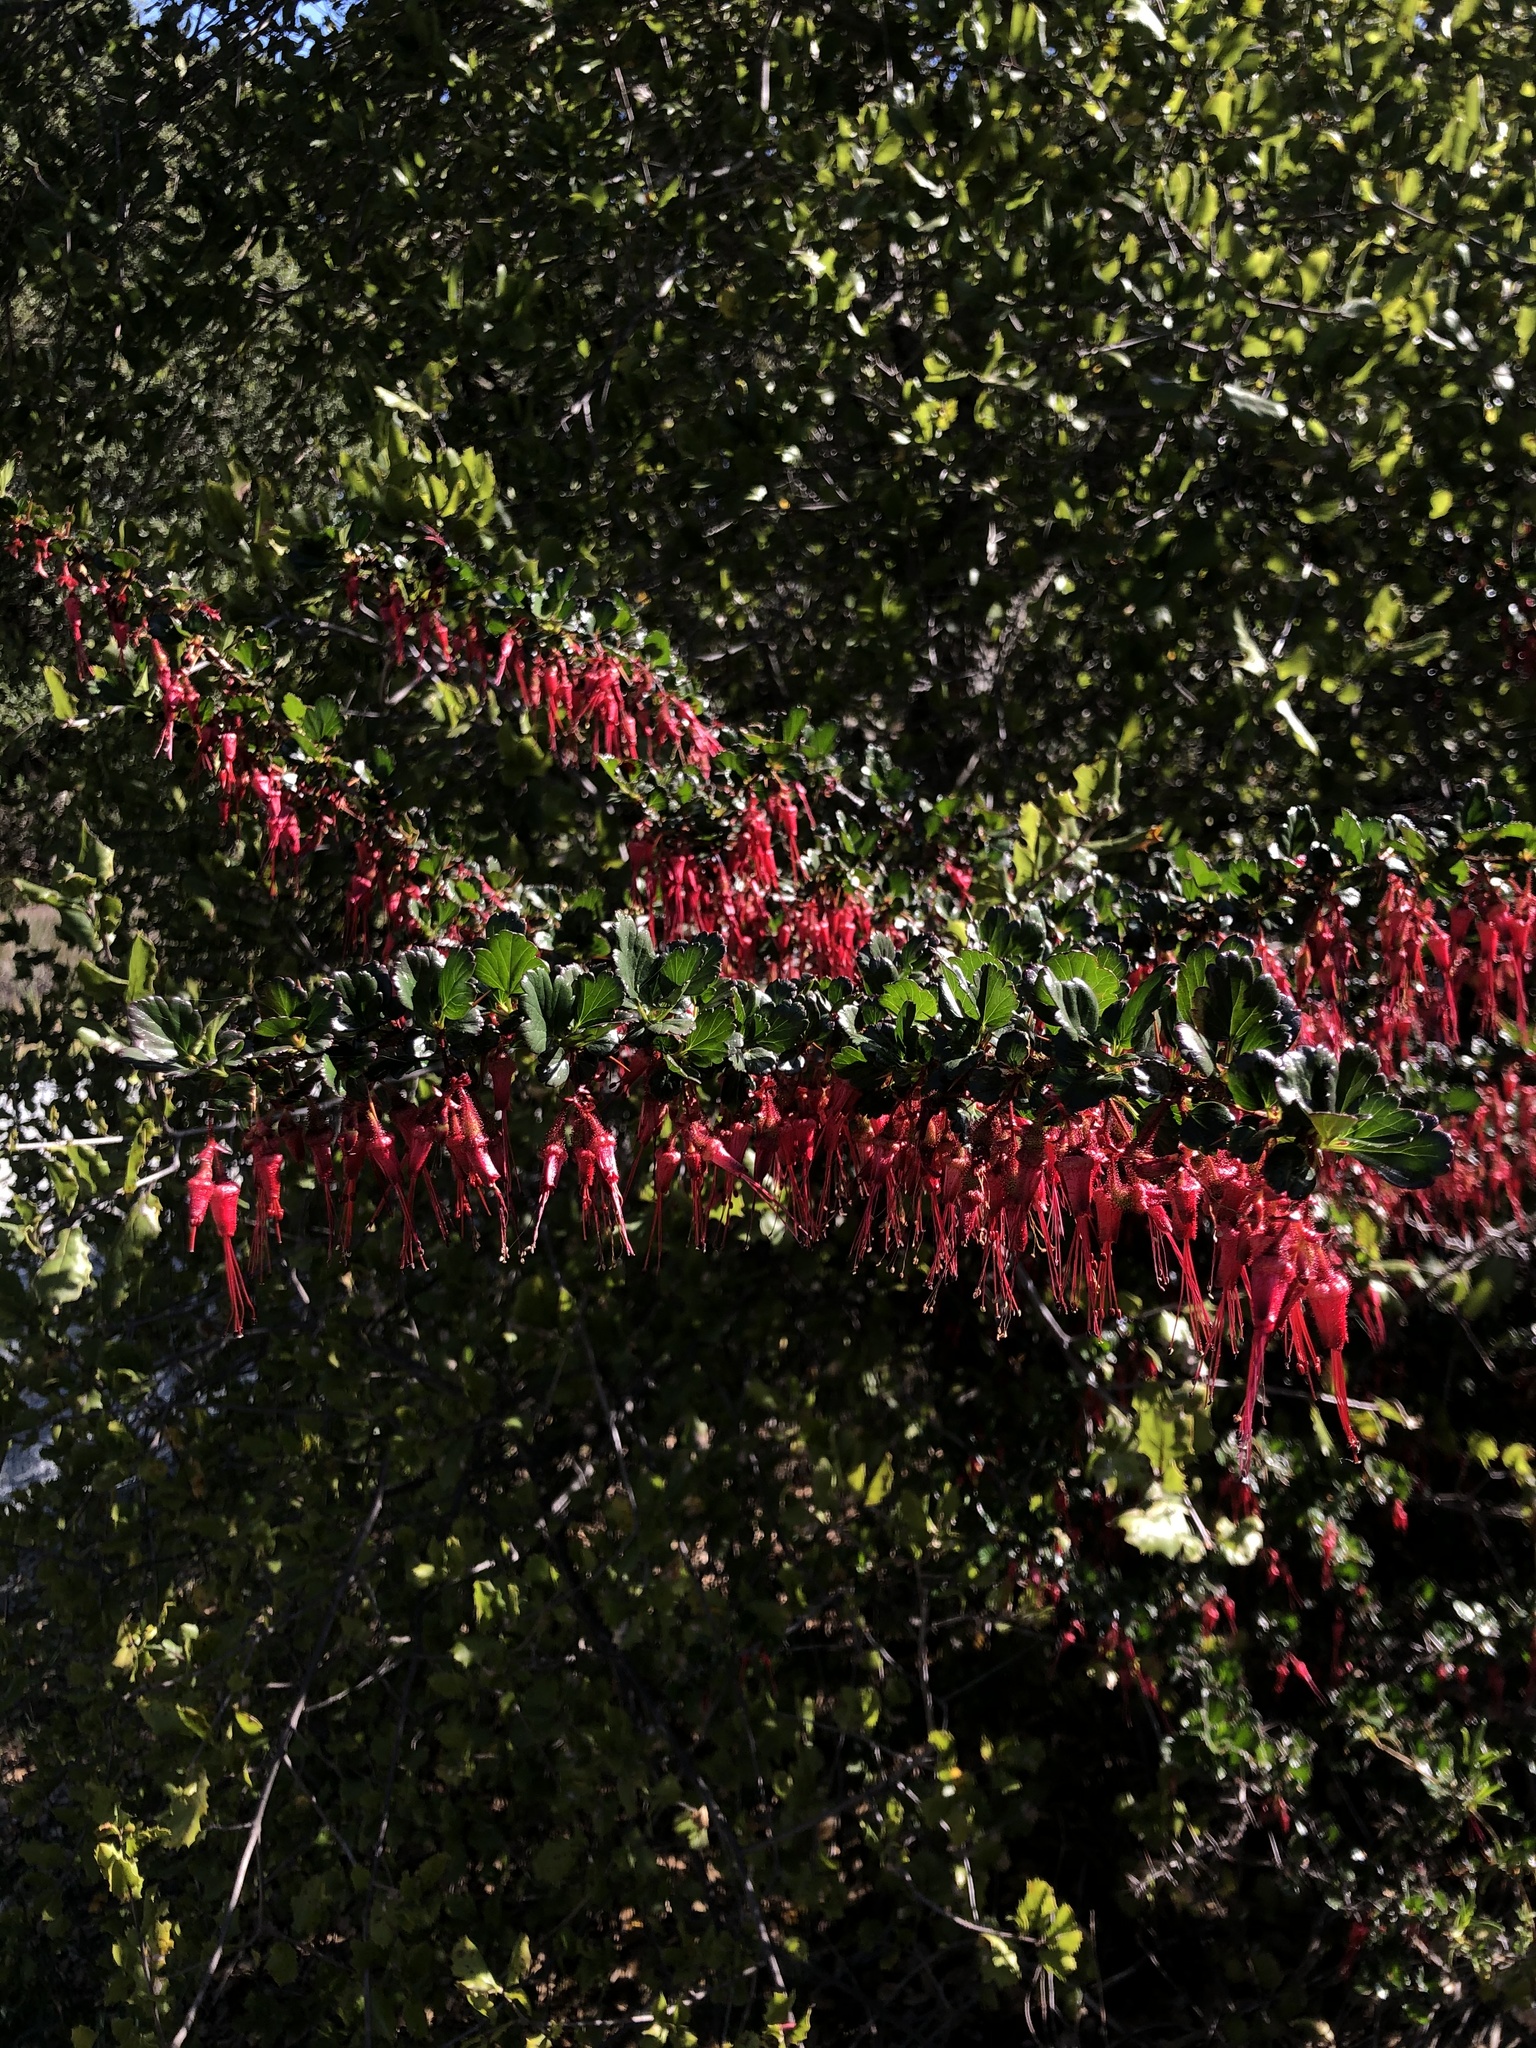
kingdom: Plantae
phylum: Tracheophyta
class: Magnoliopsida
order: Saxifragales
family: Grossulariaceae
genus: Ribes
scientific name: Ribes speciosum
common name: Fuchsia-flower gooseberry
